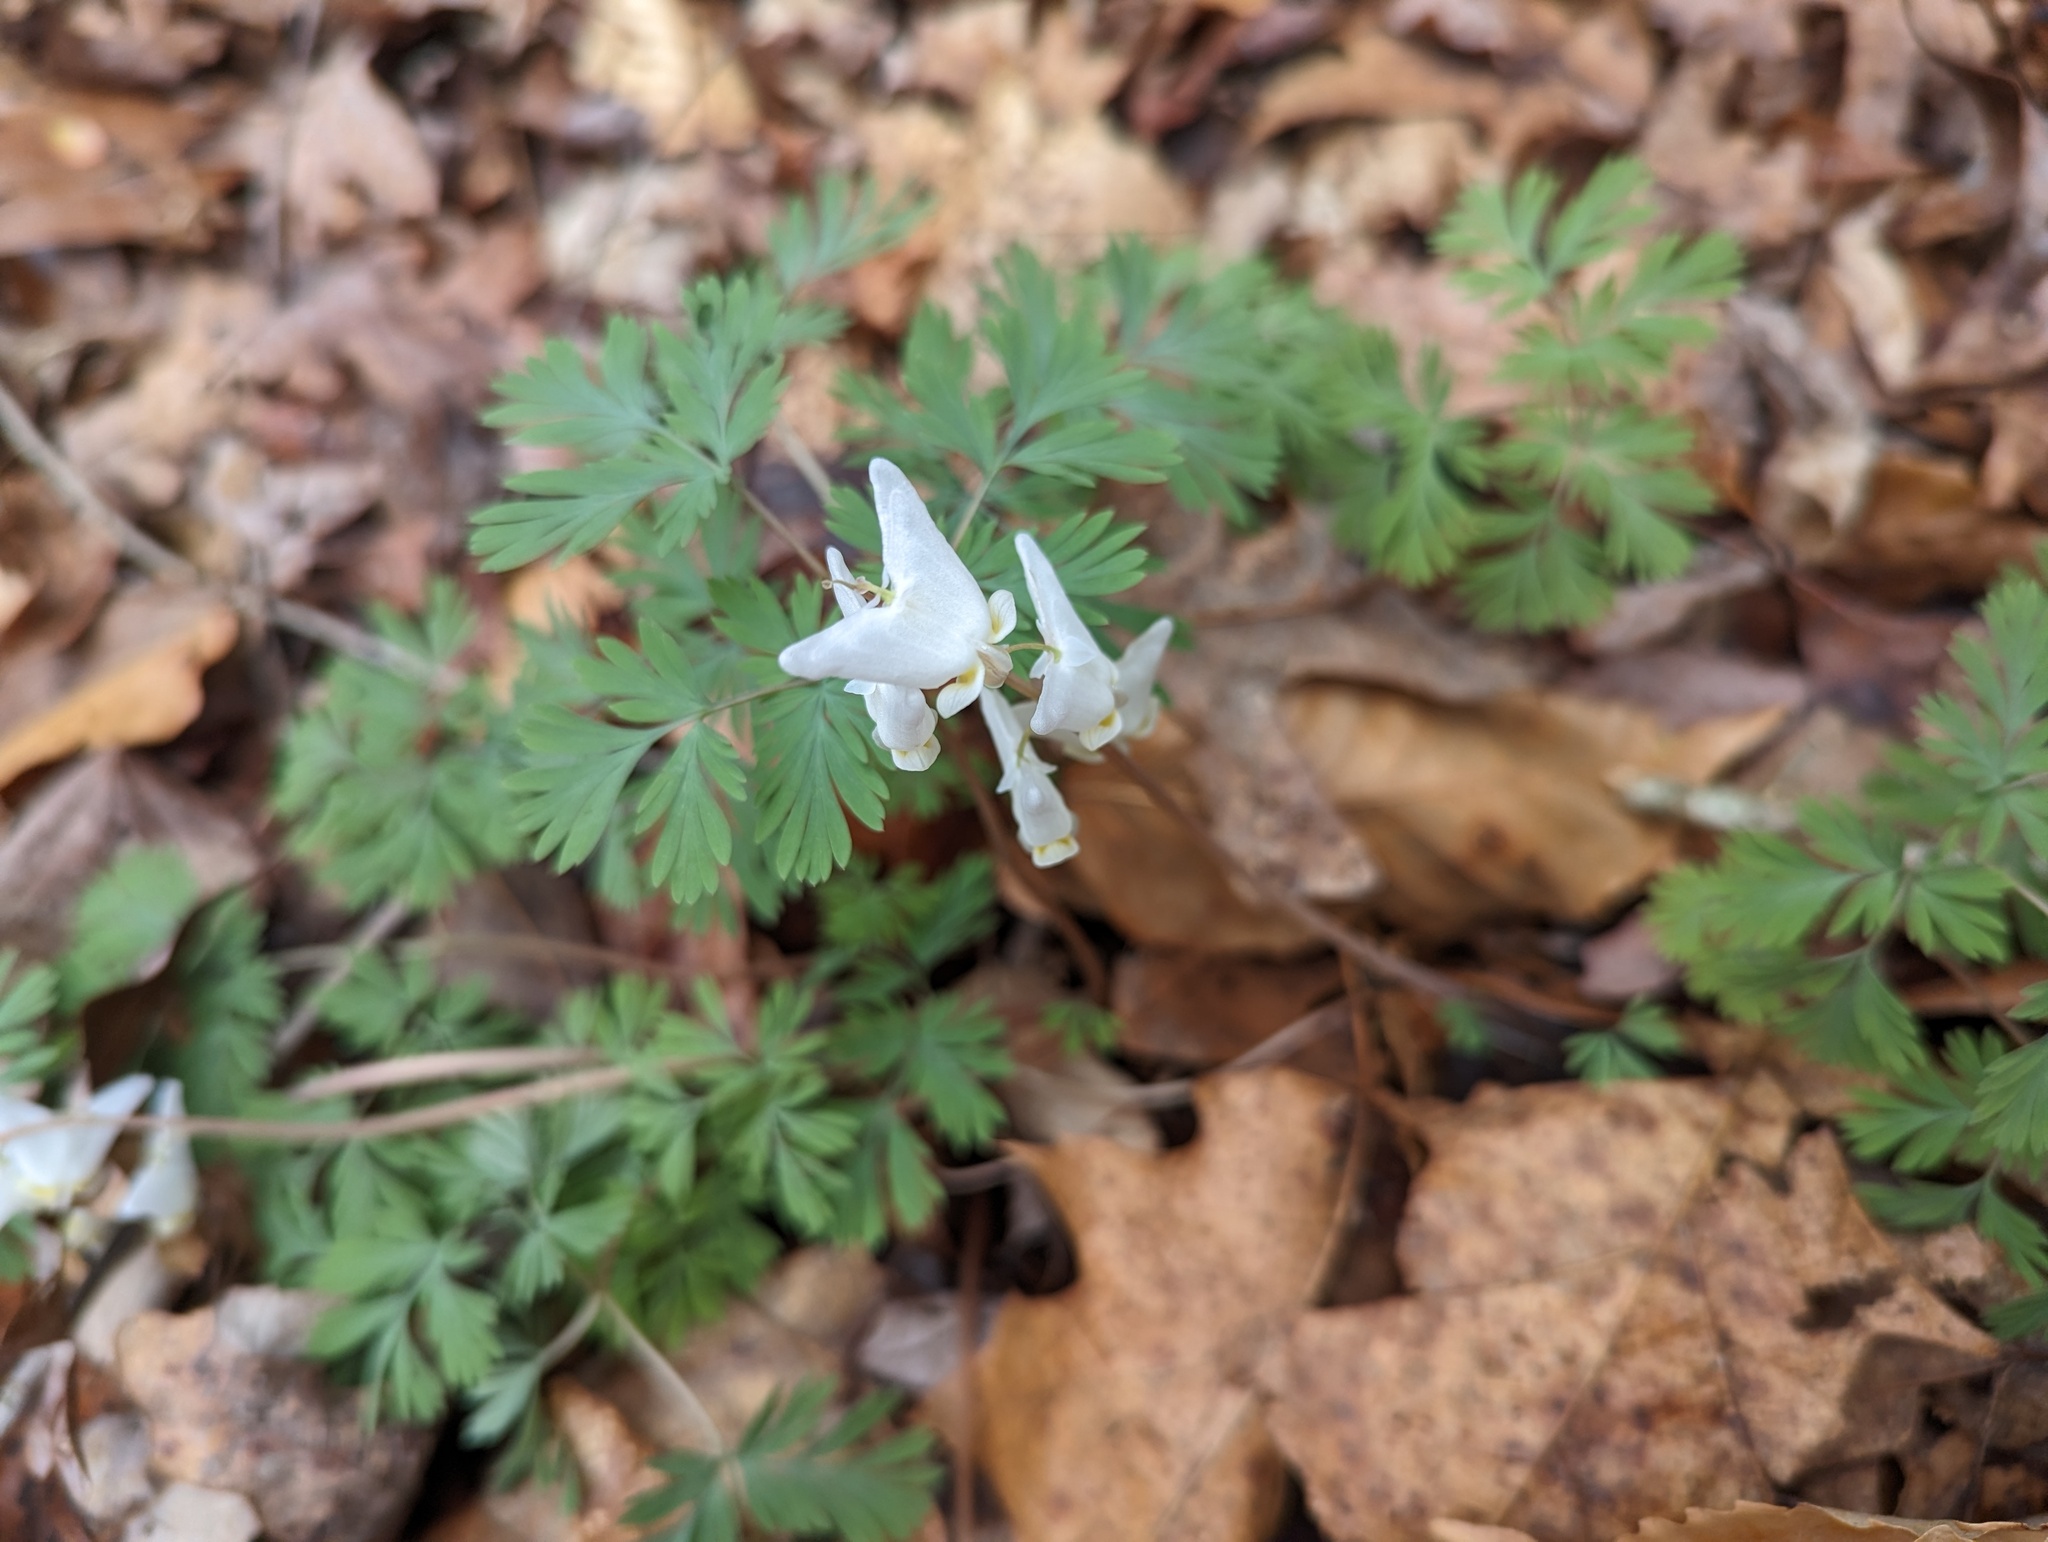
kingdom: Plantae
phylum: Tracheophyta
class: Magnoliopsida
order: Ranunculales
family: Papaveraceae
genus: Dicentra
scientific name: Dicentra cucullaria
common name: Dutchman's breeches
